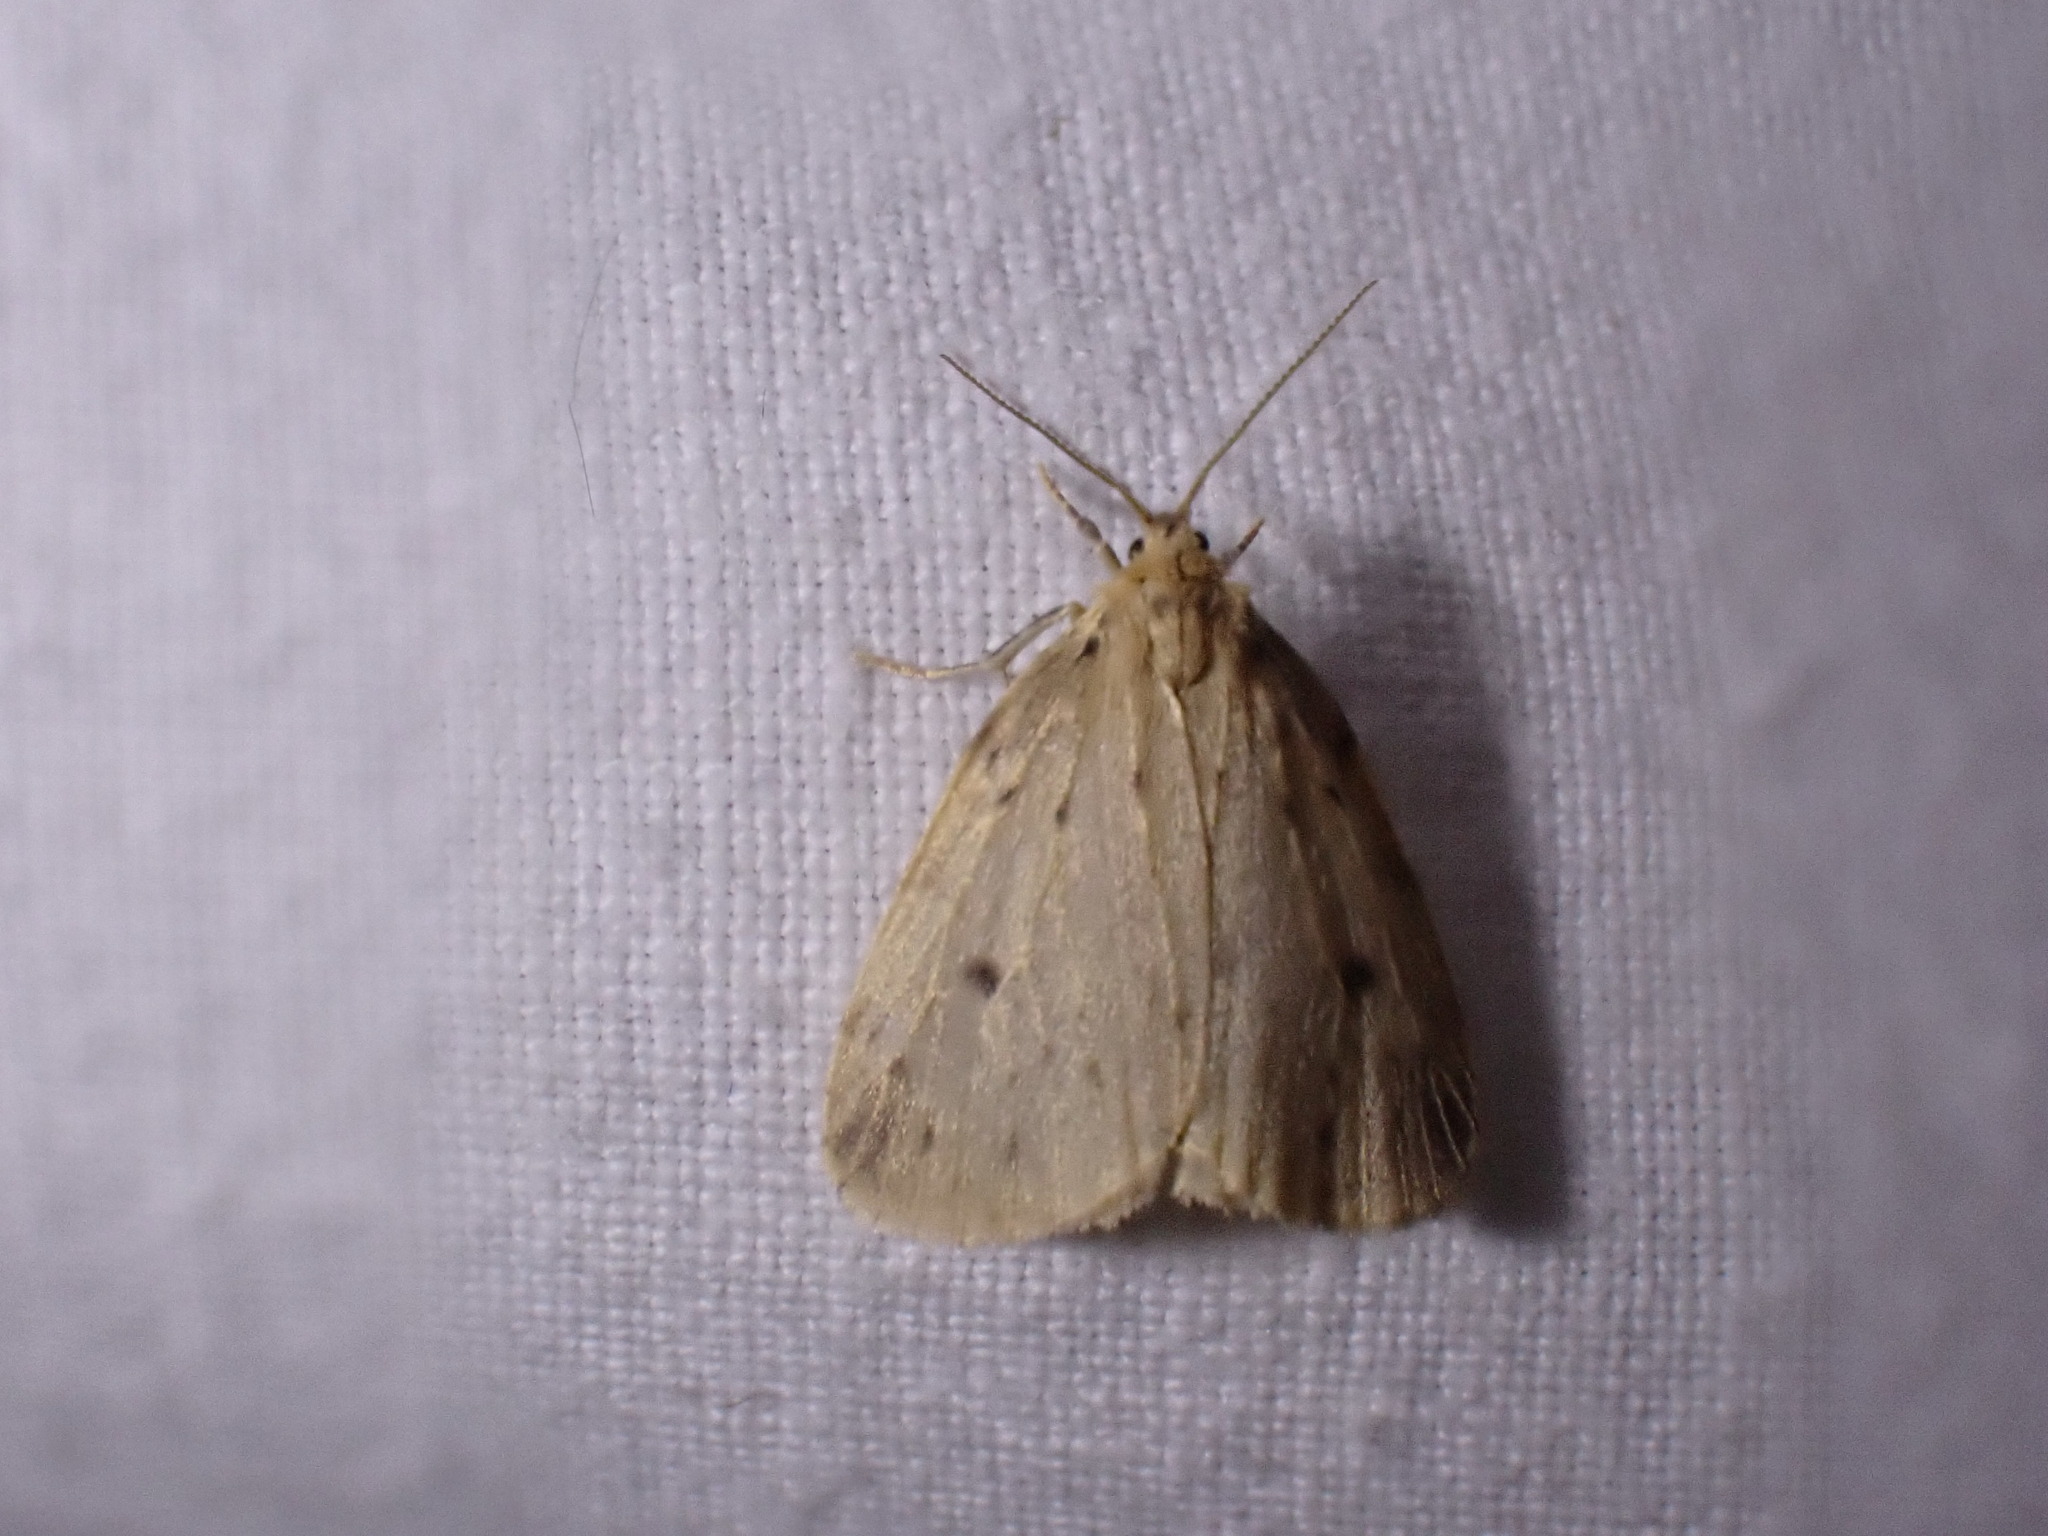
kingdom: Animalia
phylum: Arthropoda
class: Insecta
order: Lepidoptera
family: Erebidae
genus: Thumatha
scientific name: Thumatha senex
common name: Round-winged muslin
